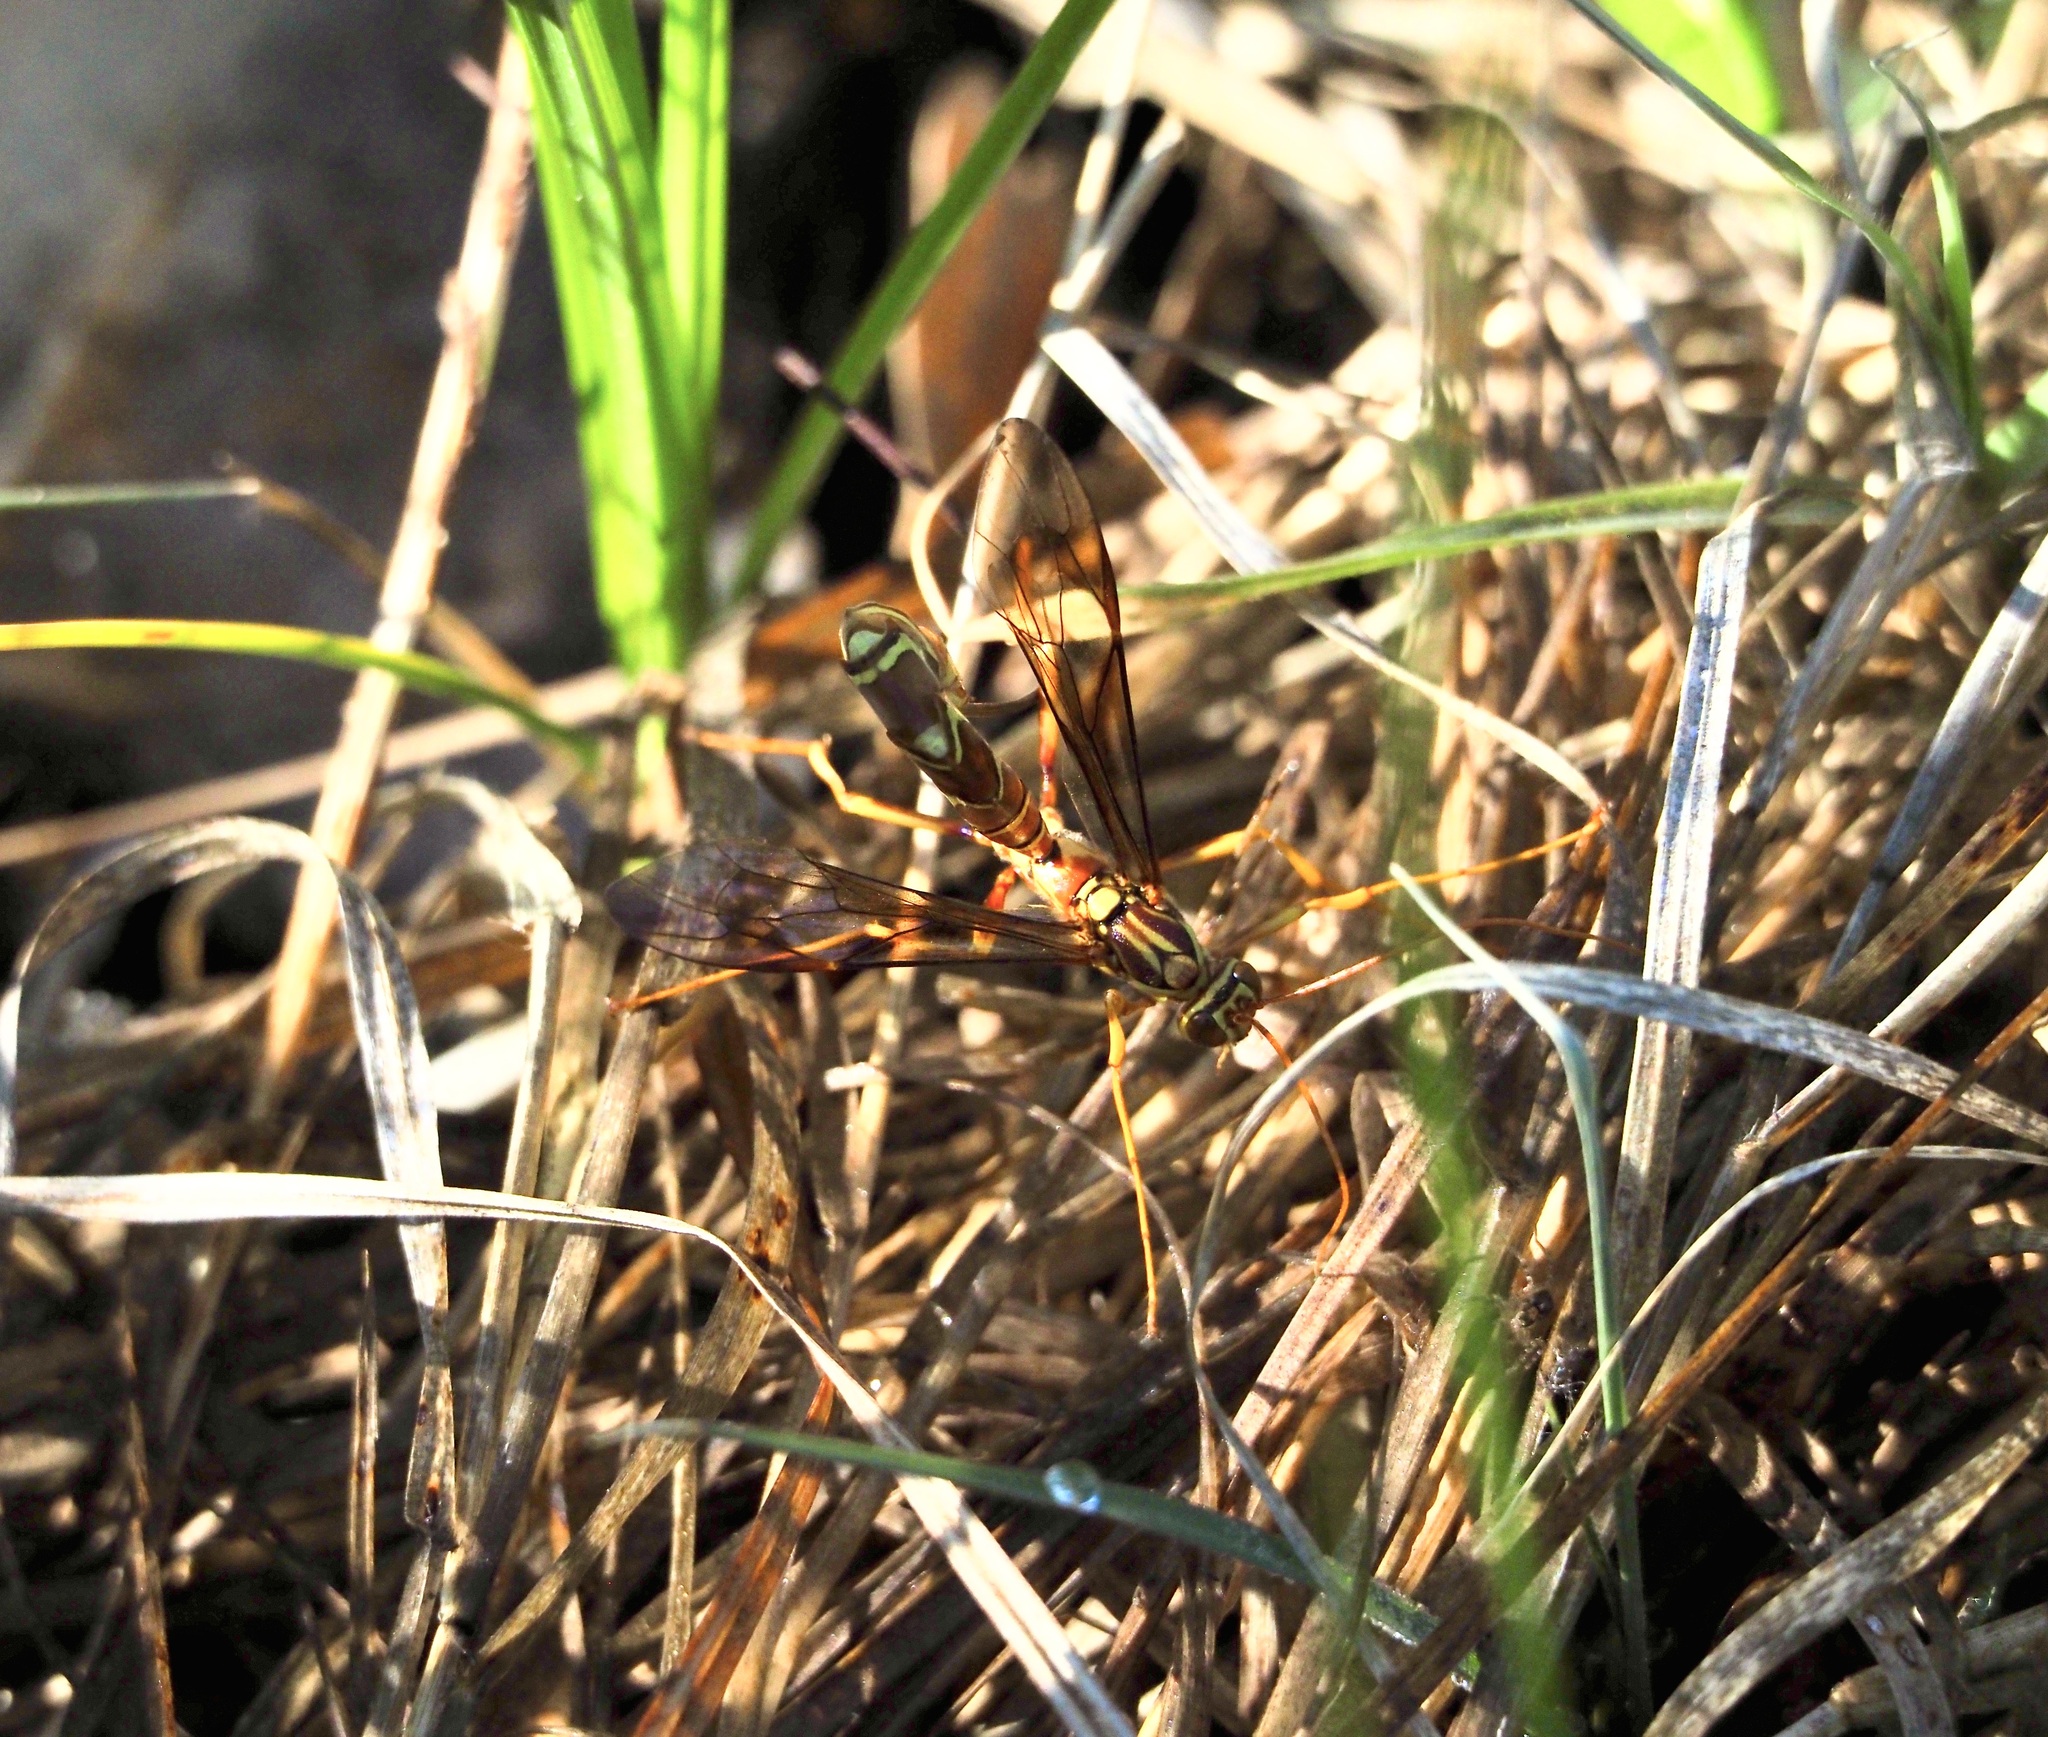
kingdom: Animalia
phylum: Arthropoda
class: Insecta
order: Hymenoptera
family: Ichneumonidae
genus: Megarhyssa
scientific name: Megarhyssa macrura
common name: Long-tailed giant ichneumonid wasp
